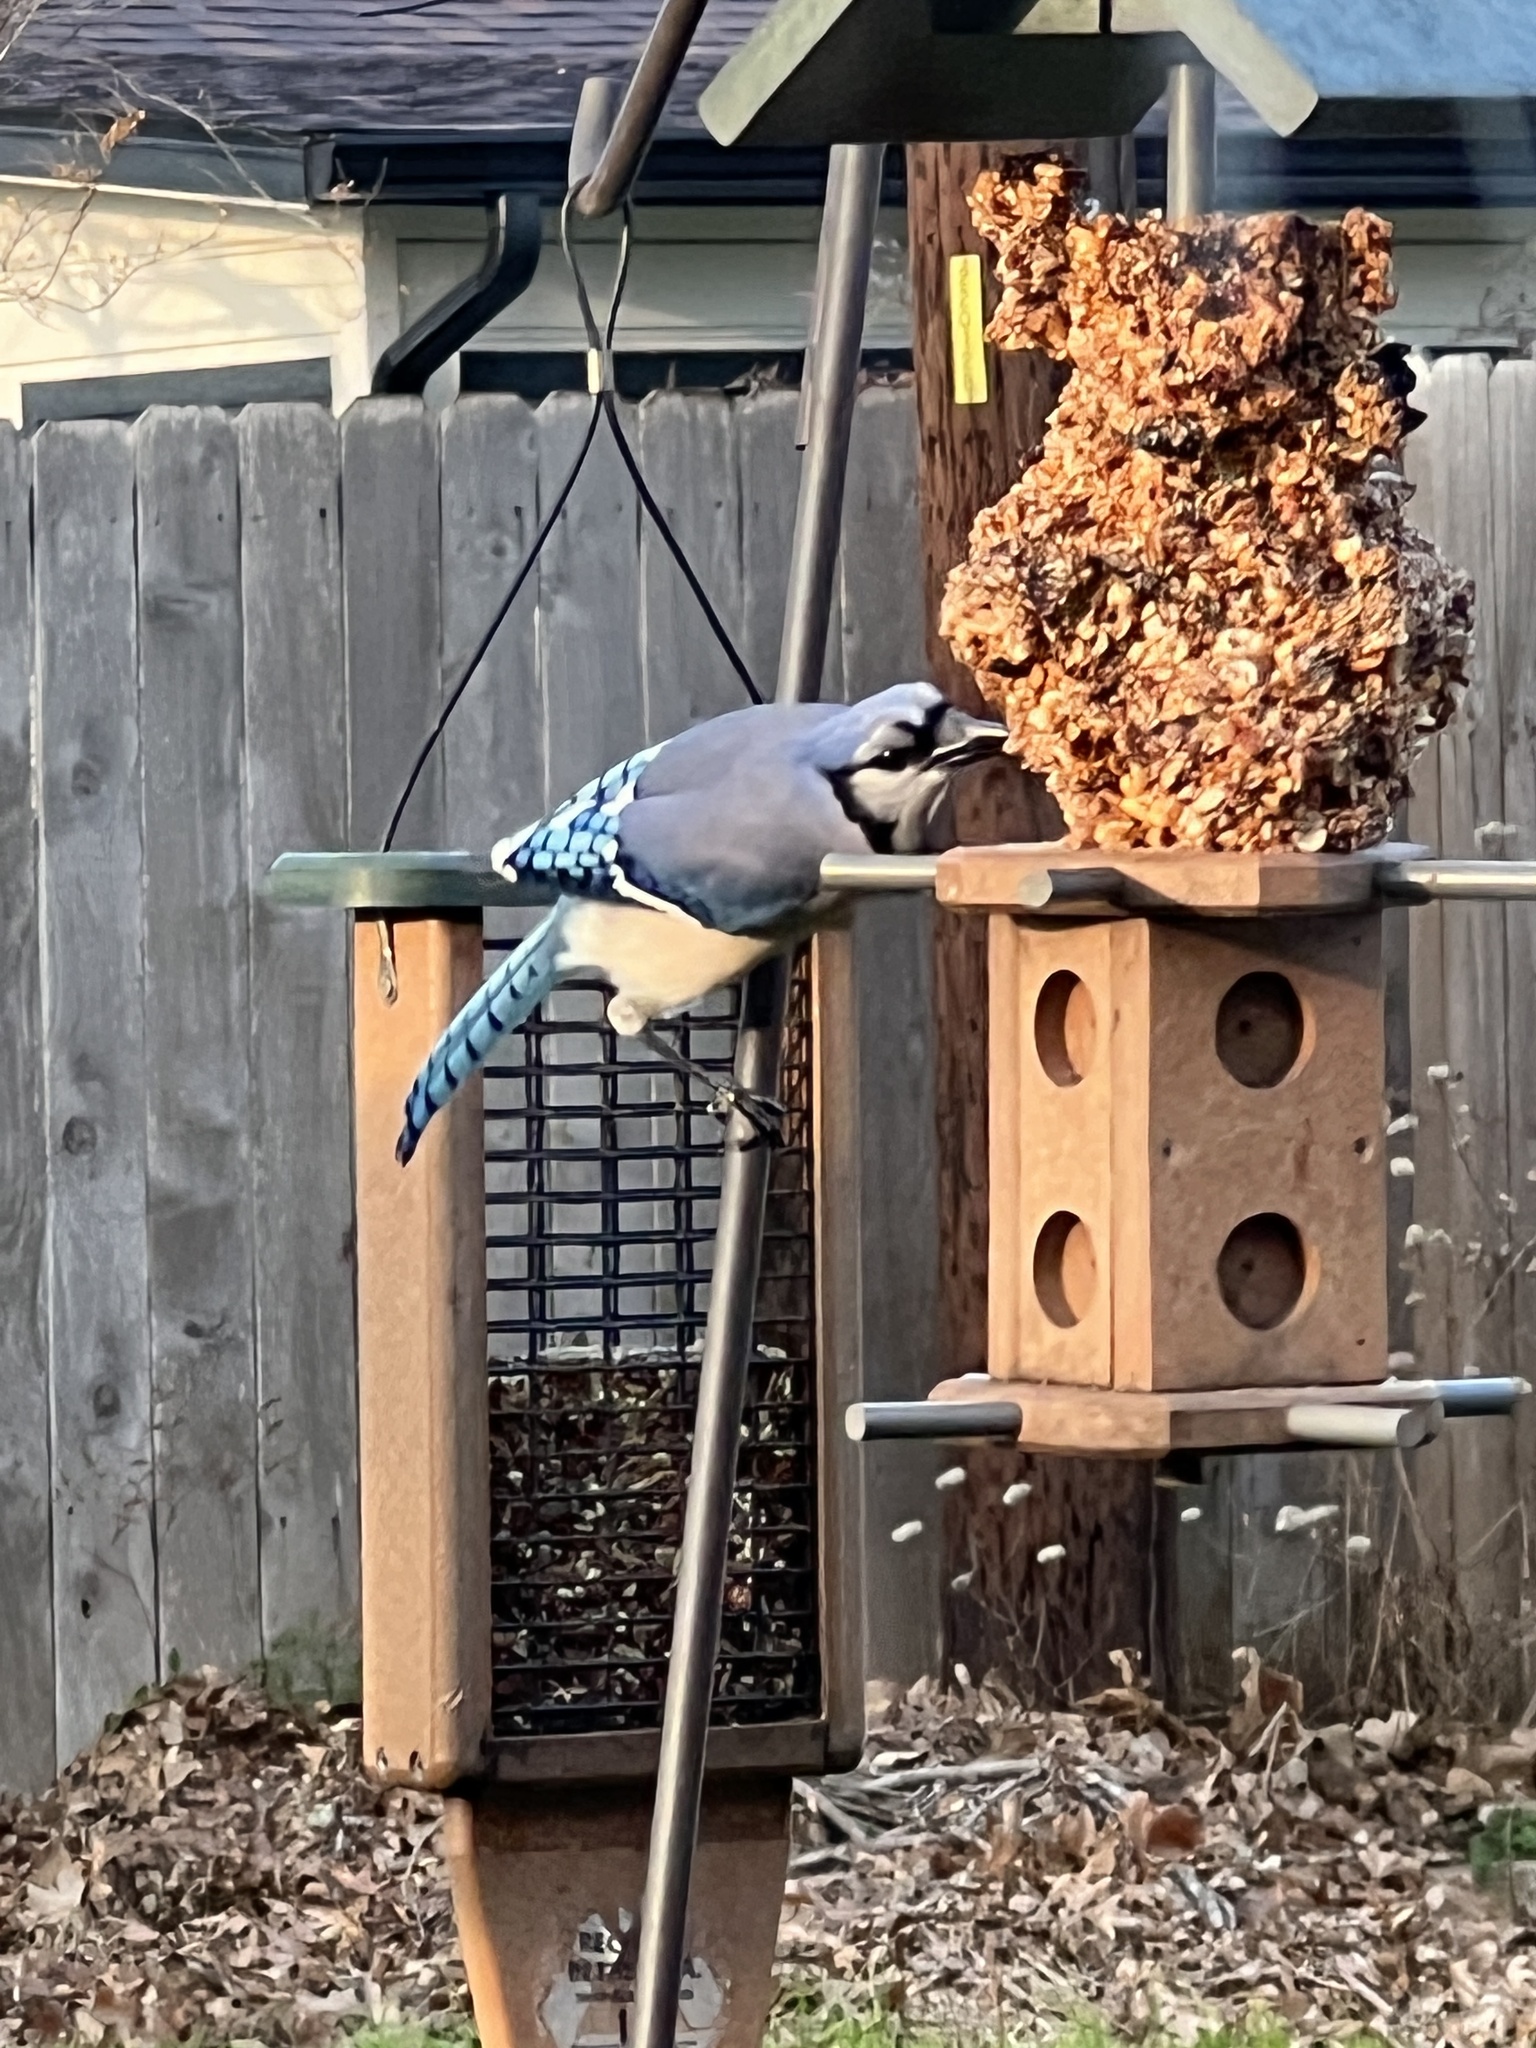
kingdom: Animalia
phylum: Chordata
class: Aves
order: Passeriformes
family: Corvidae
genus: Cyanocitta
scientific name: Cyanocitta cristata
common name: Blue jay
